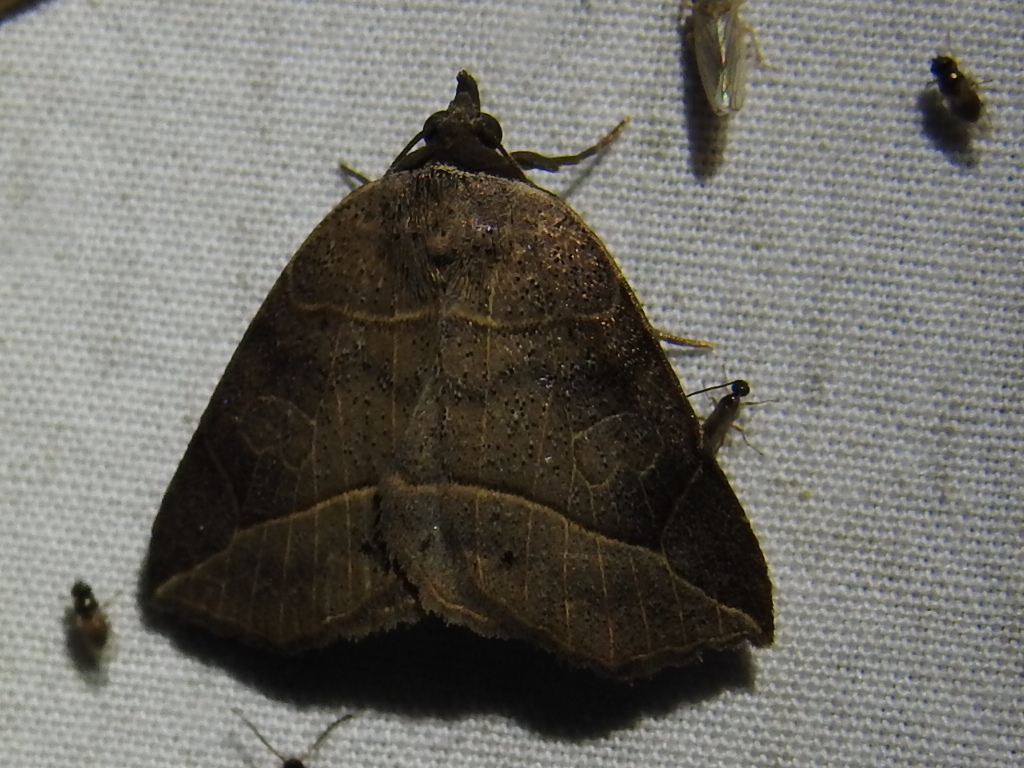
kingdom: Animalia
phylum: Arthropoda
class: Insecta
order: Lepidoptera
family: Erebidae
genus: Isogona
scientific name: Isogona tenuis
